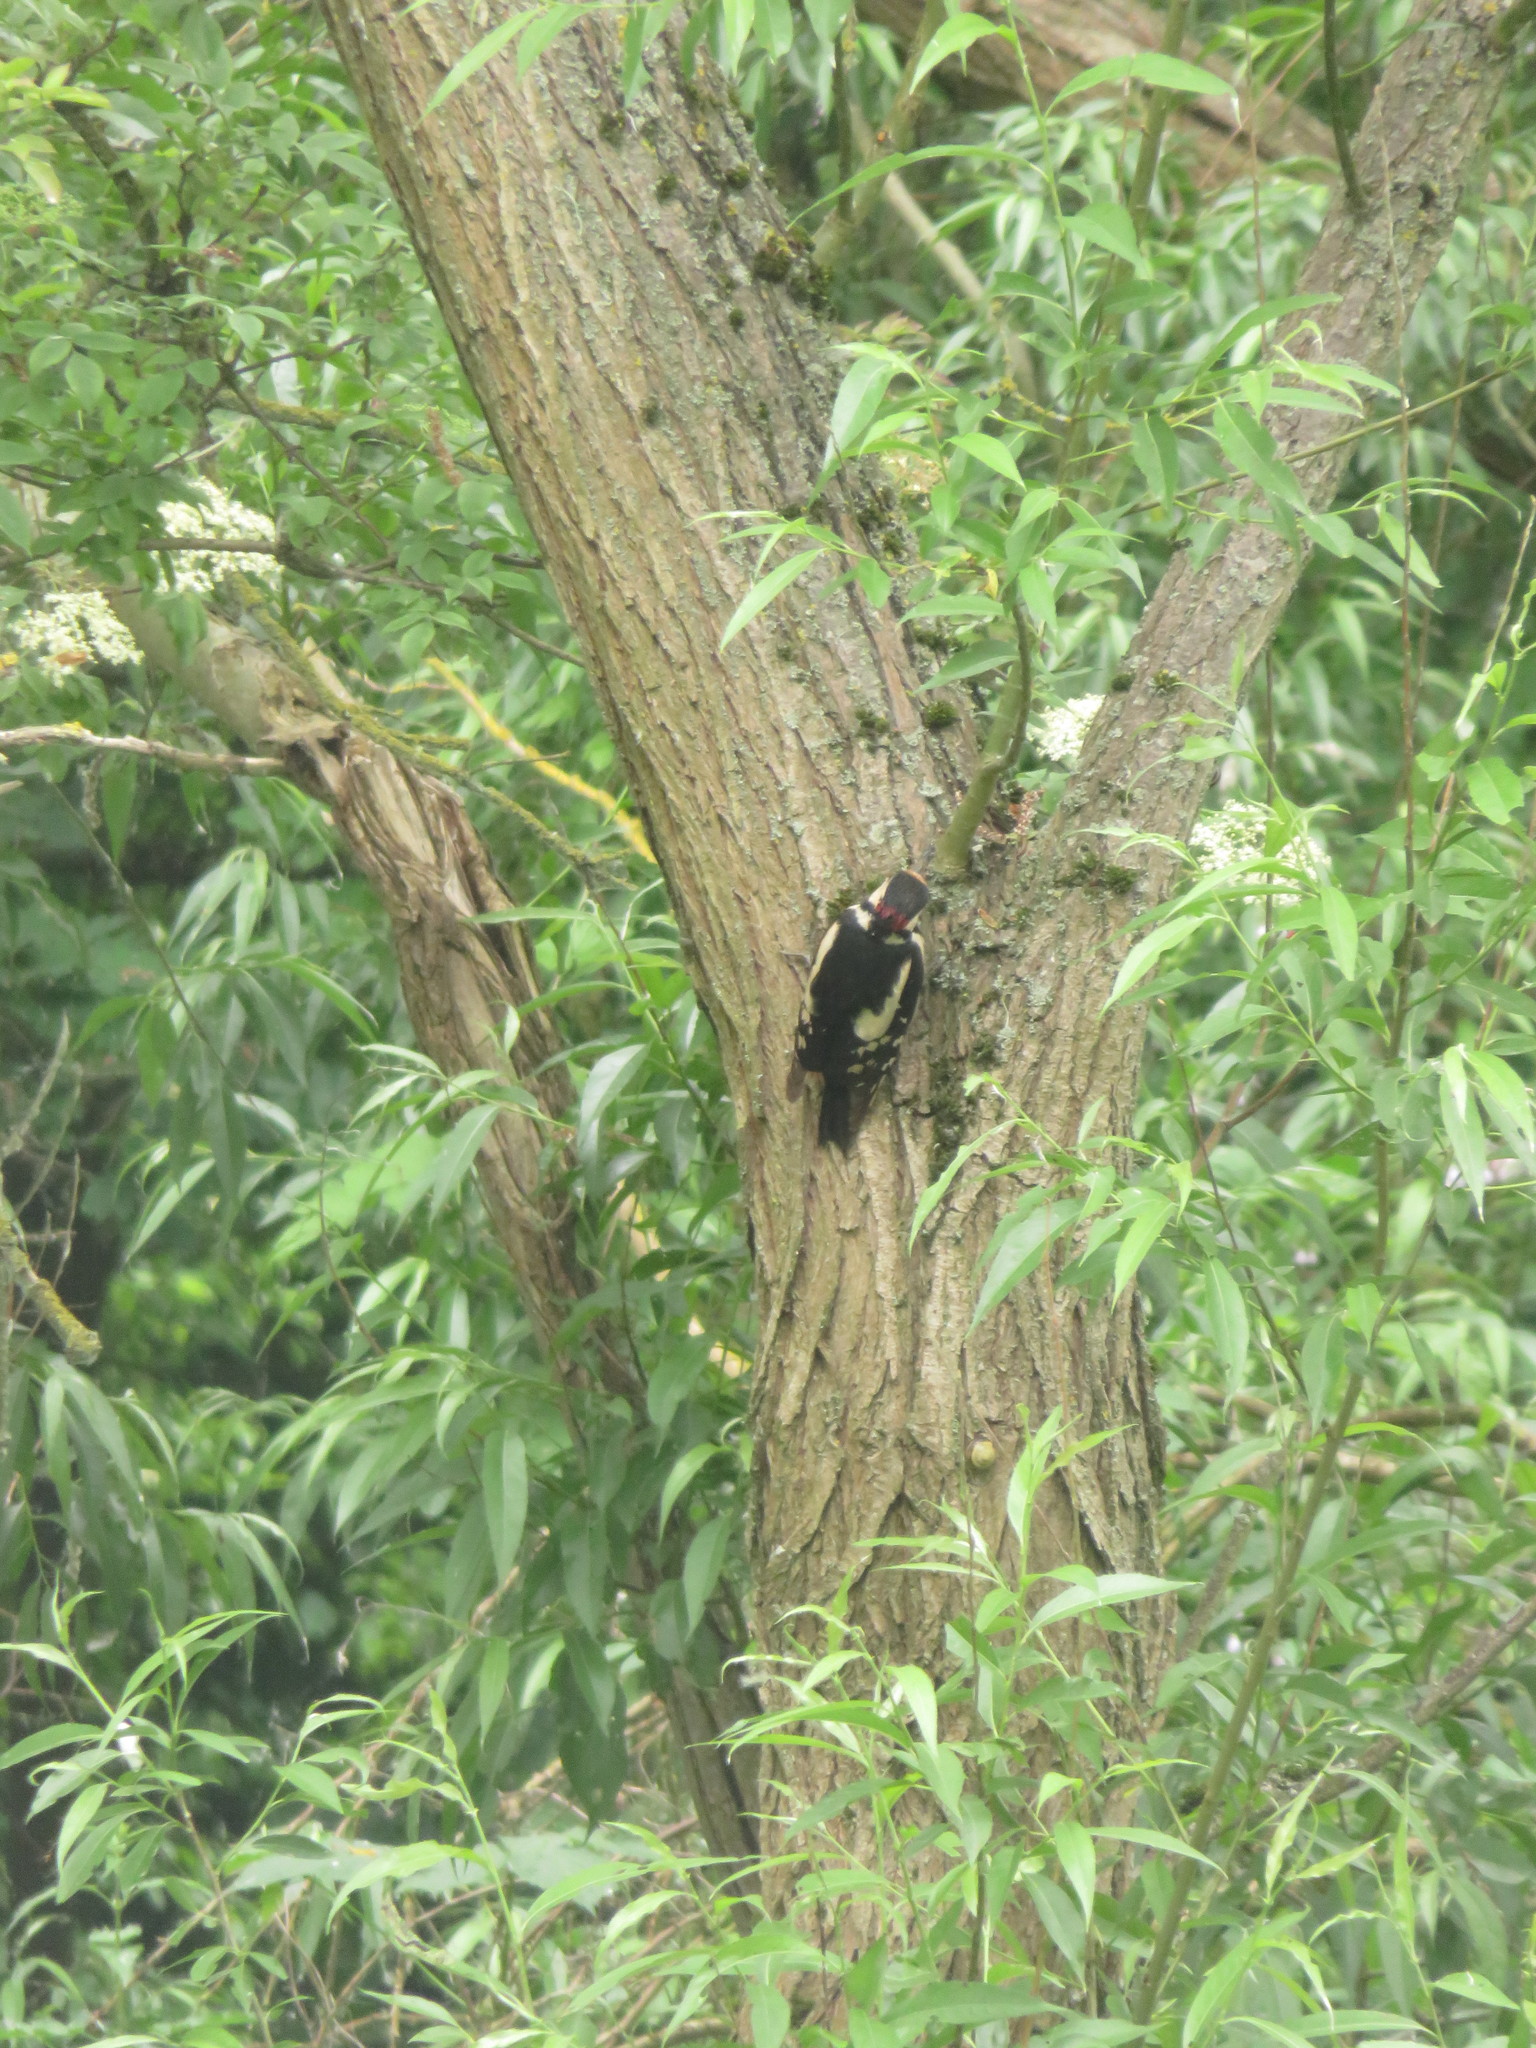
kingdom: Animalia
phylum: Chordata
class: Aves
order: Piciformes
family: Picidae
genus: Dendrocopos
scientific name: Dendrocopos major
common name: Great spotted woodpecker
